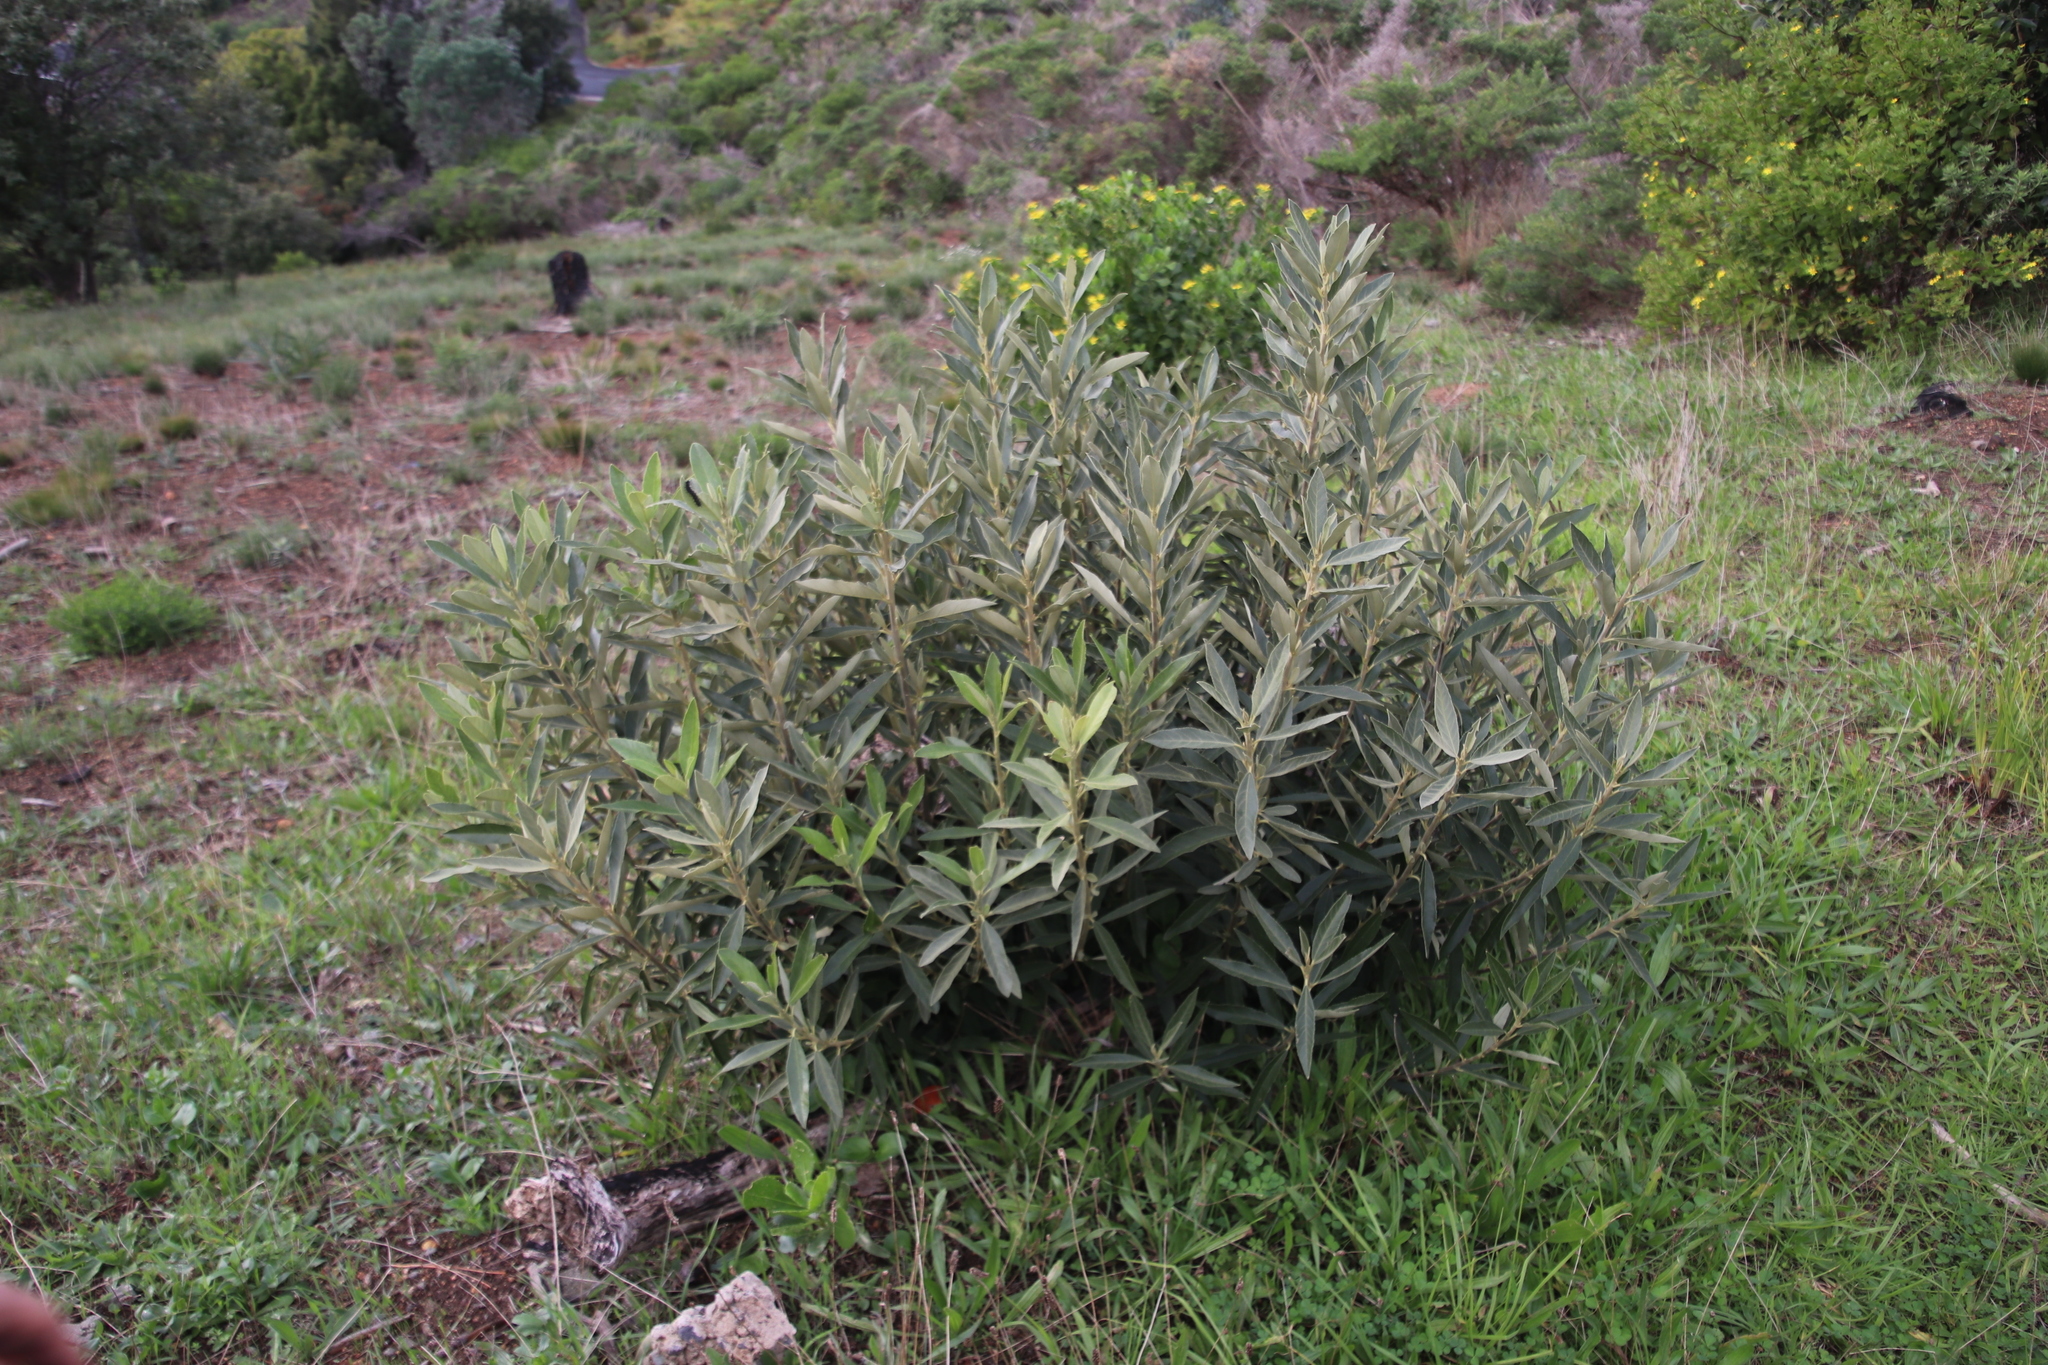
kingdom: Plantae
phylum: Tracheophyta
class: Magnoliopsida
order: Malpighiales
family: Achariaceae
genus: Kiggelaria
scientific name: Kiggelaria africana
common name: Wild peach
